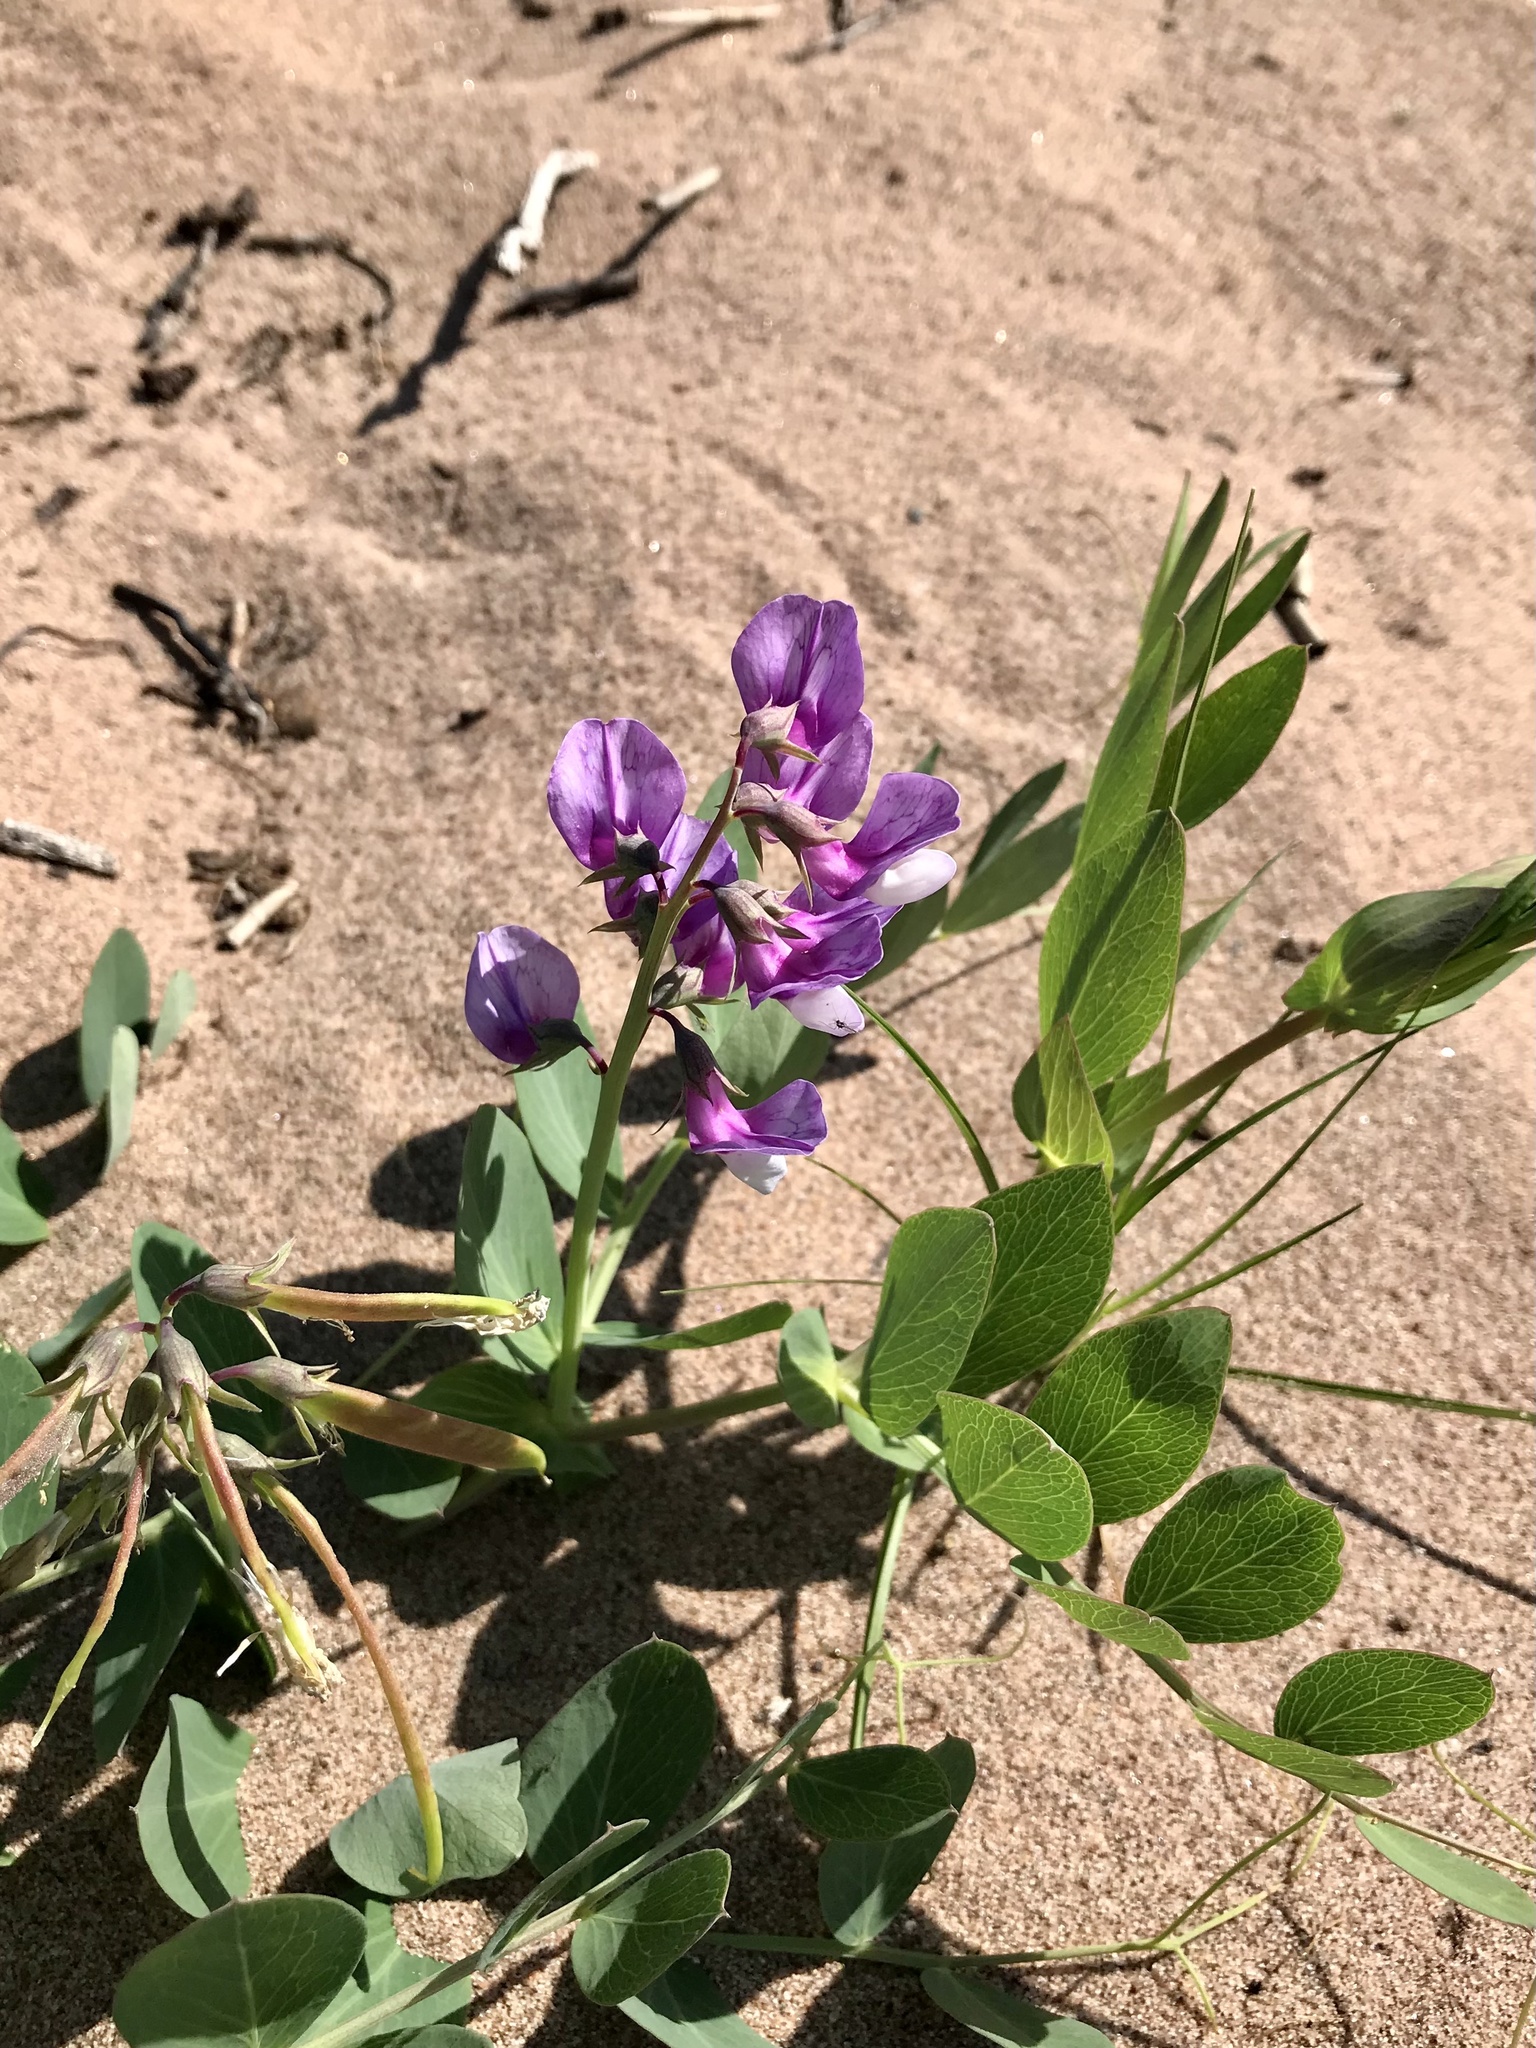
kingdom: Plantae
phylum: Tracheophyta
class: Magnoliopsida
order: Fabales
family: Fabaceae
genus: Lathyrus
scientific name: Lathyrus japonicus
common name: Sea pea
